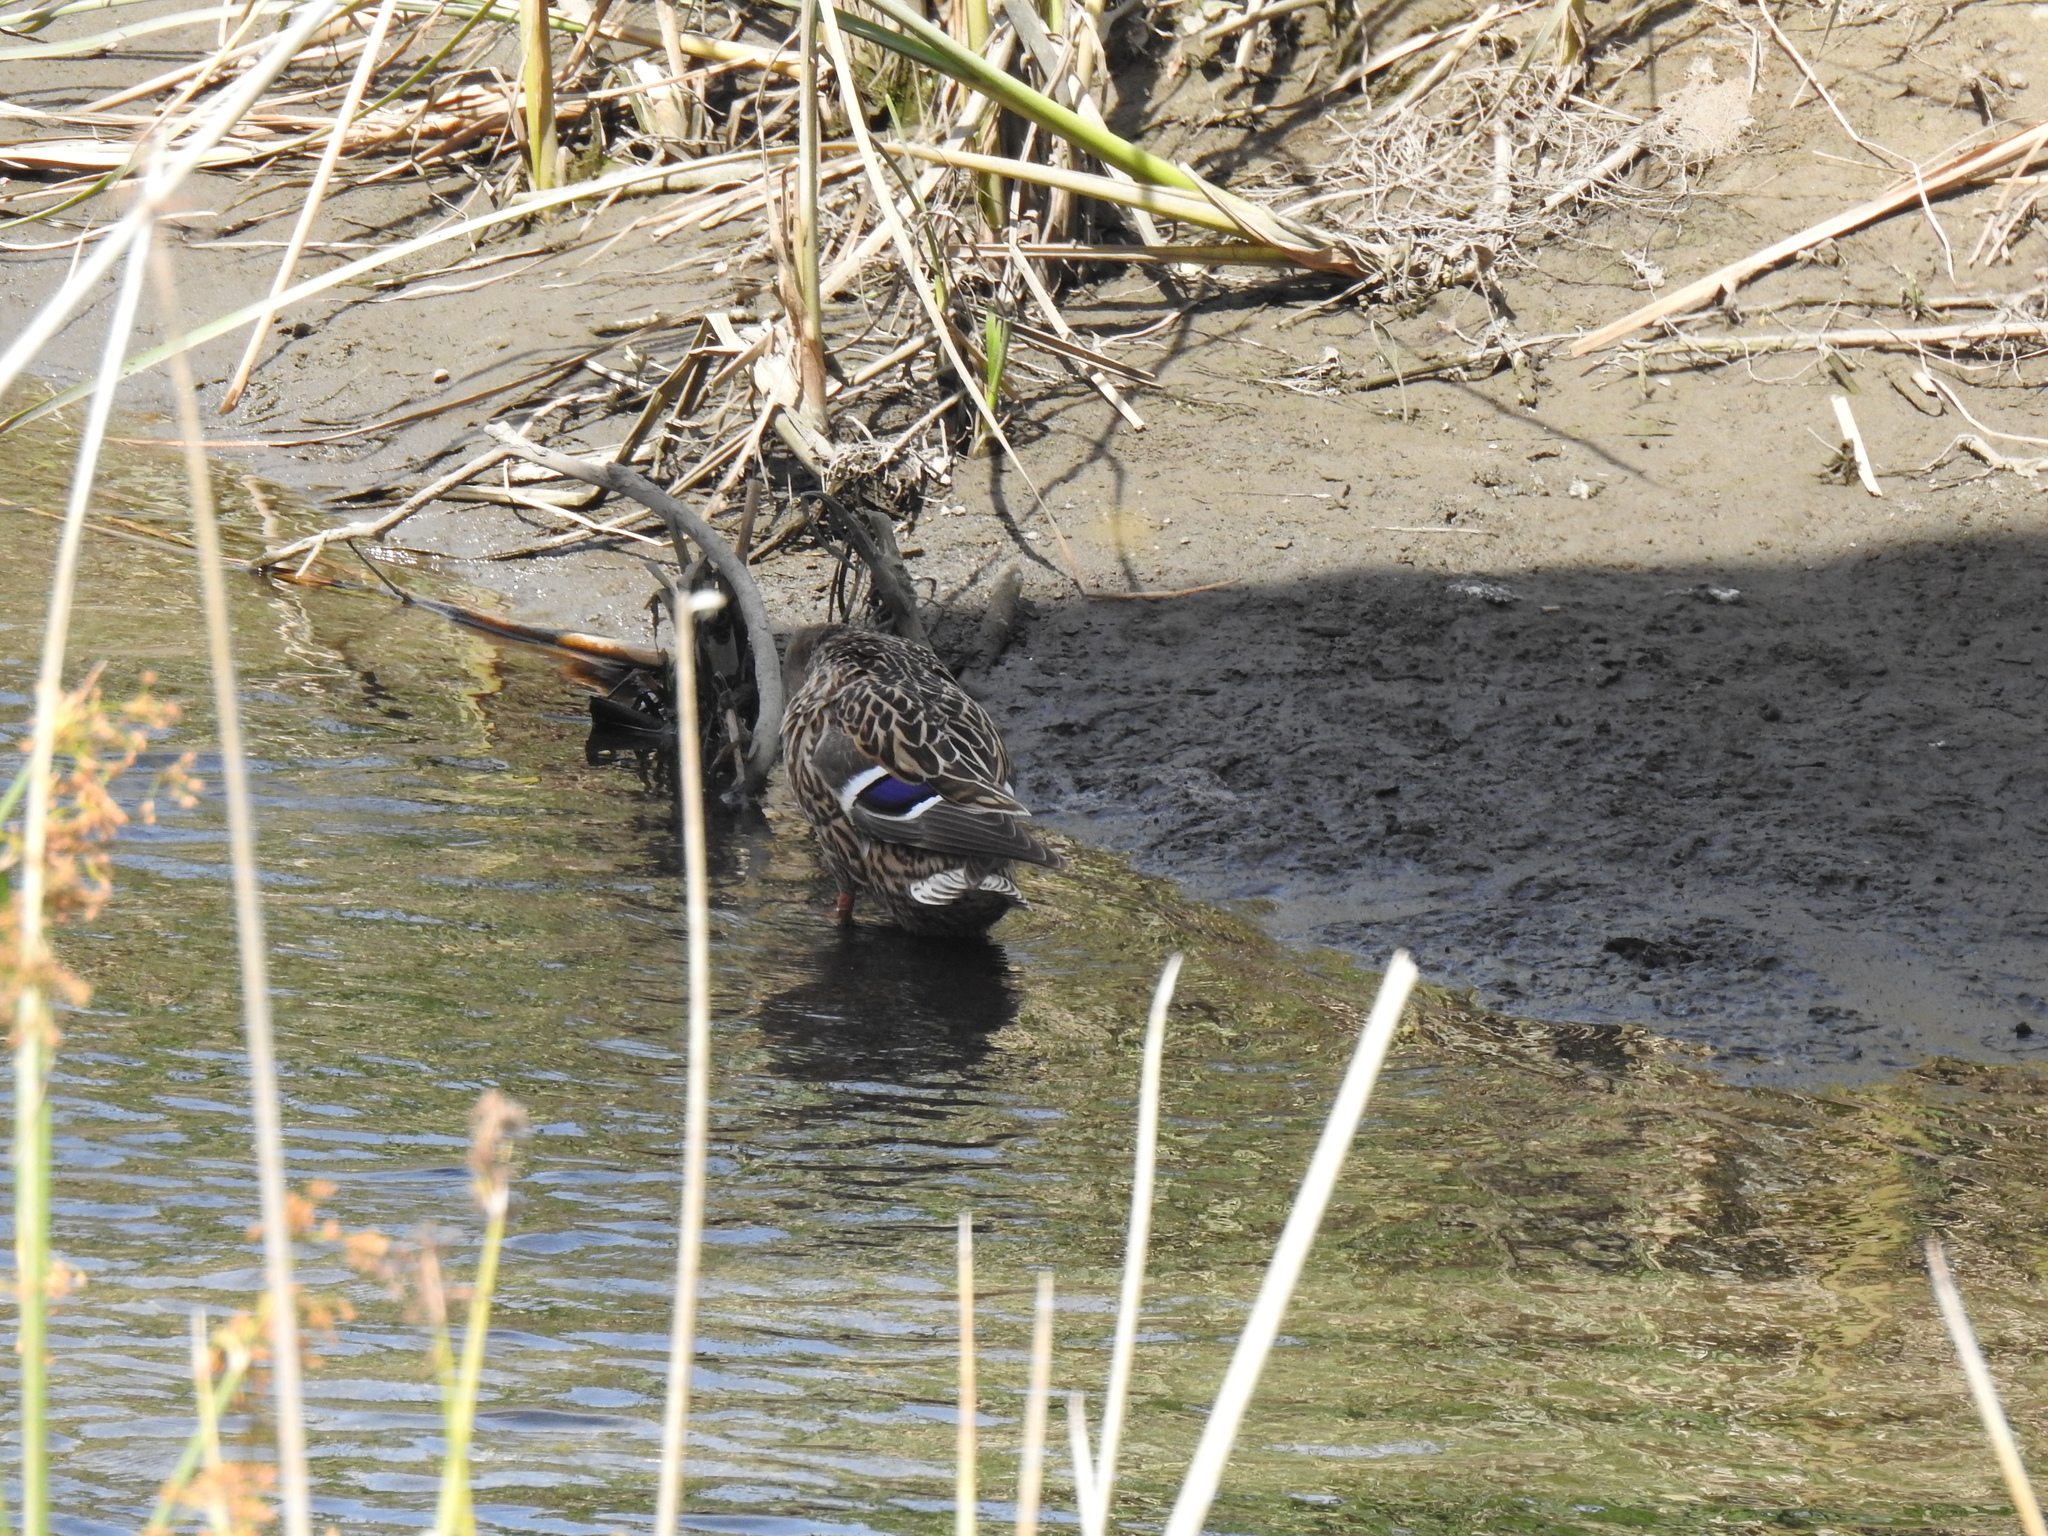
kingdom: Animalia
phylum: Chordata
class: Aves
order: Anseriformes
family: Anatidae
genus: Anas
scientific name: Anas platyrhynchos
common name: Mallard
